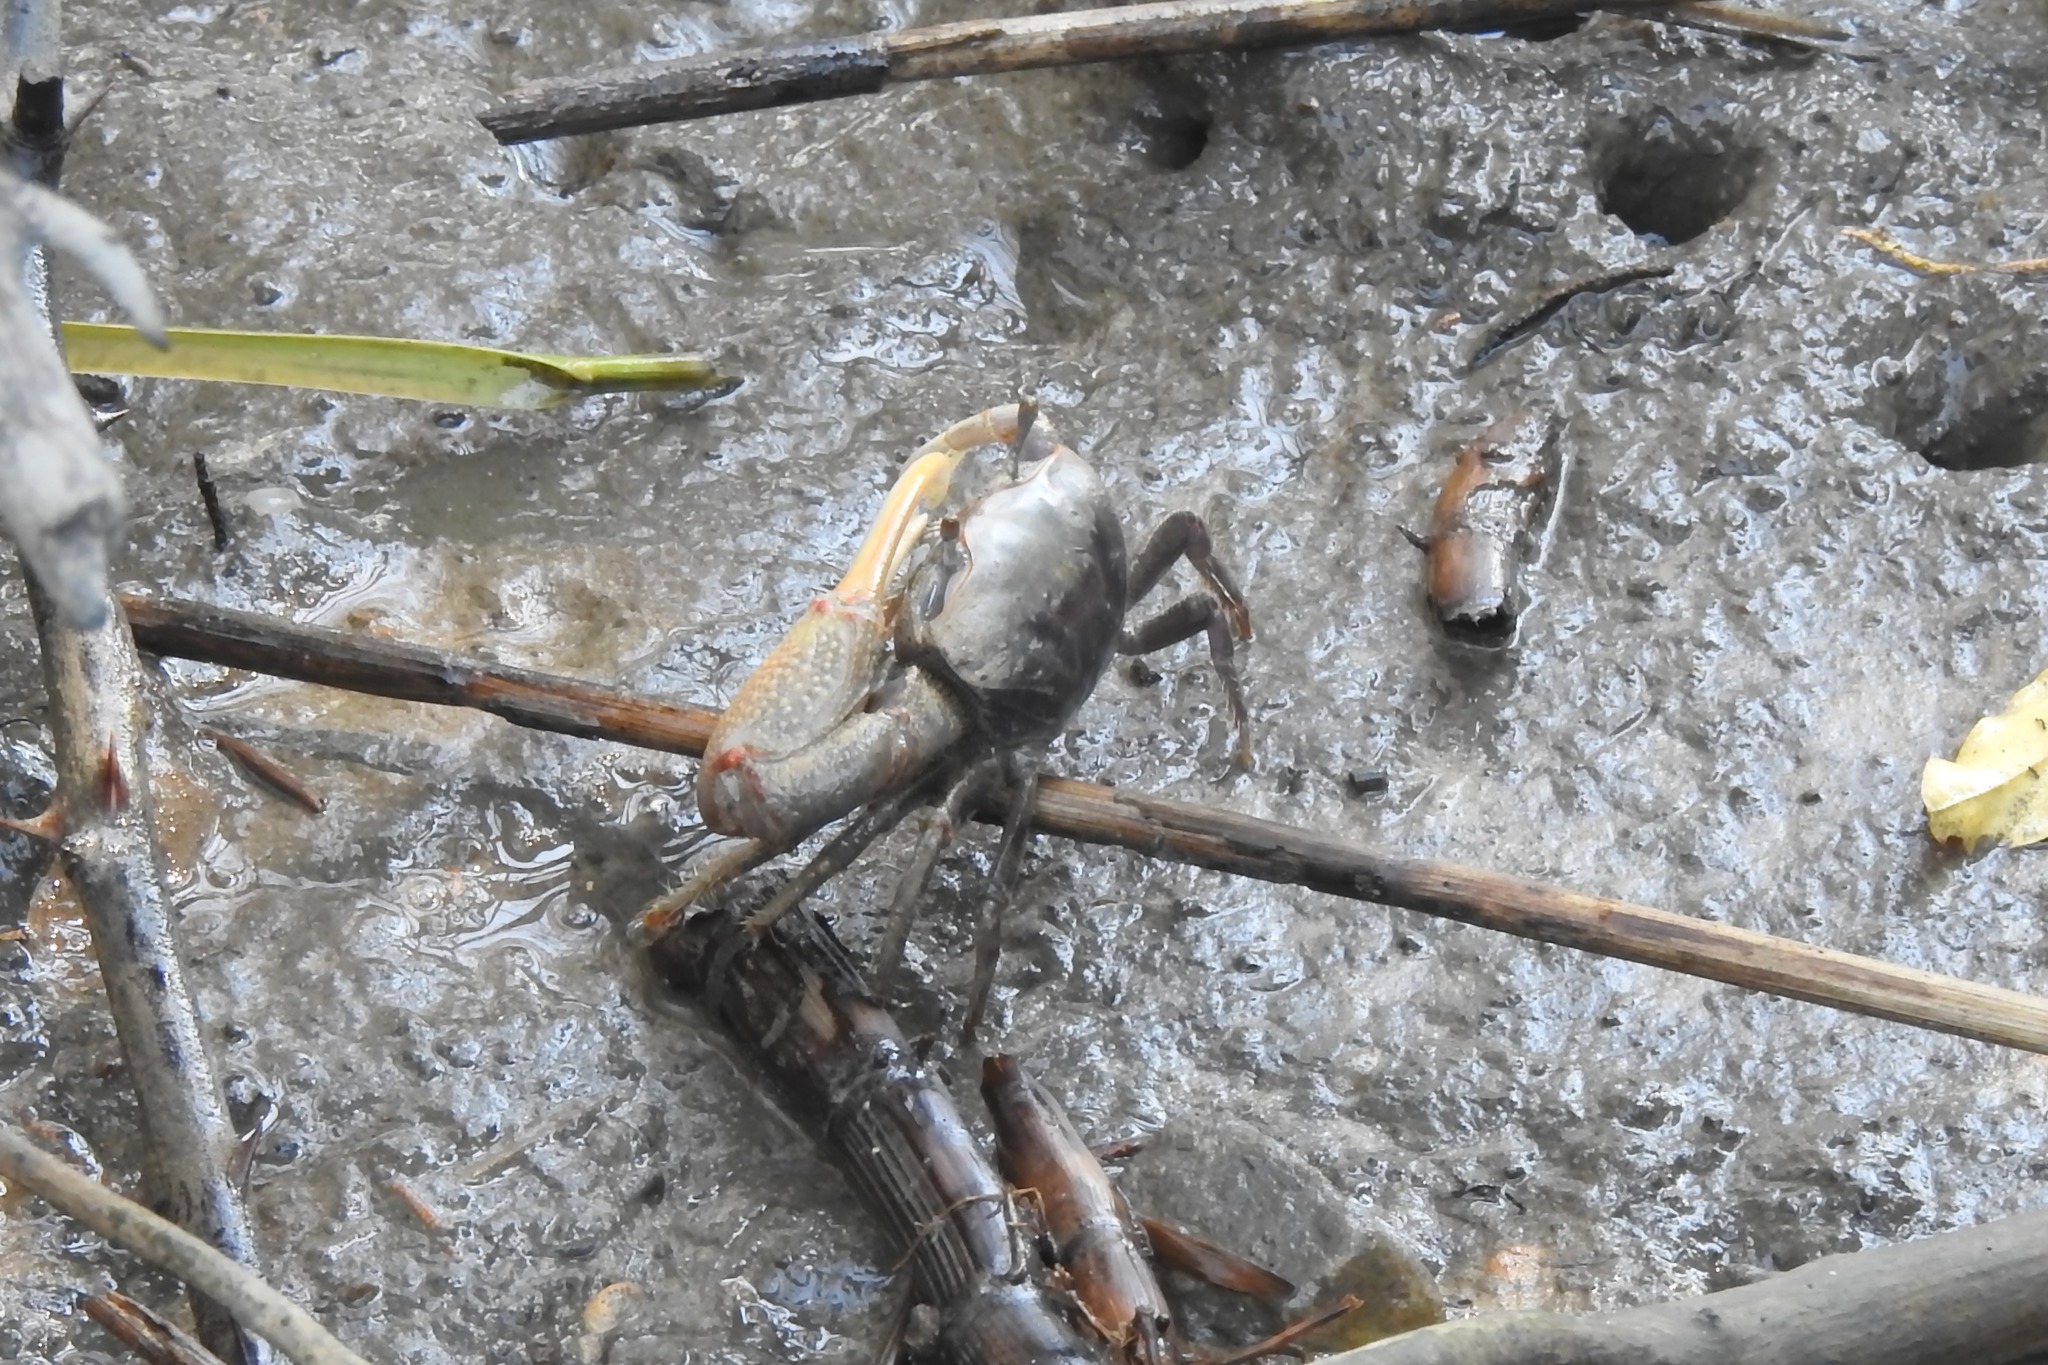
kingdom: Animalia
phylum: Arthropoda
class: Malacostraca
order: Decapoda
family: Ocypodidae
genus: Minuca
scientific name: Minuca minax
